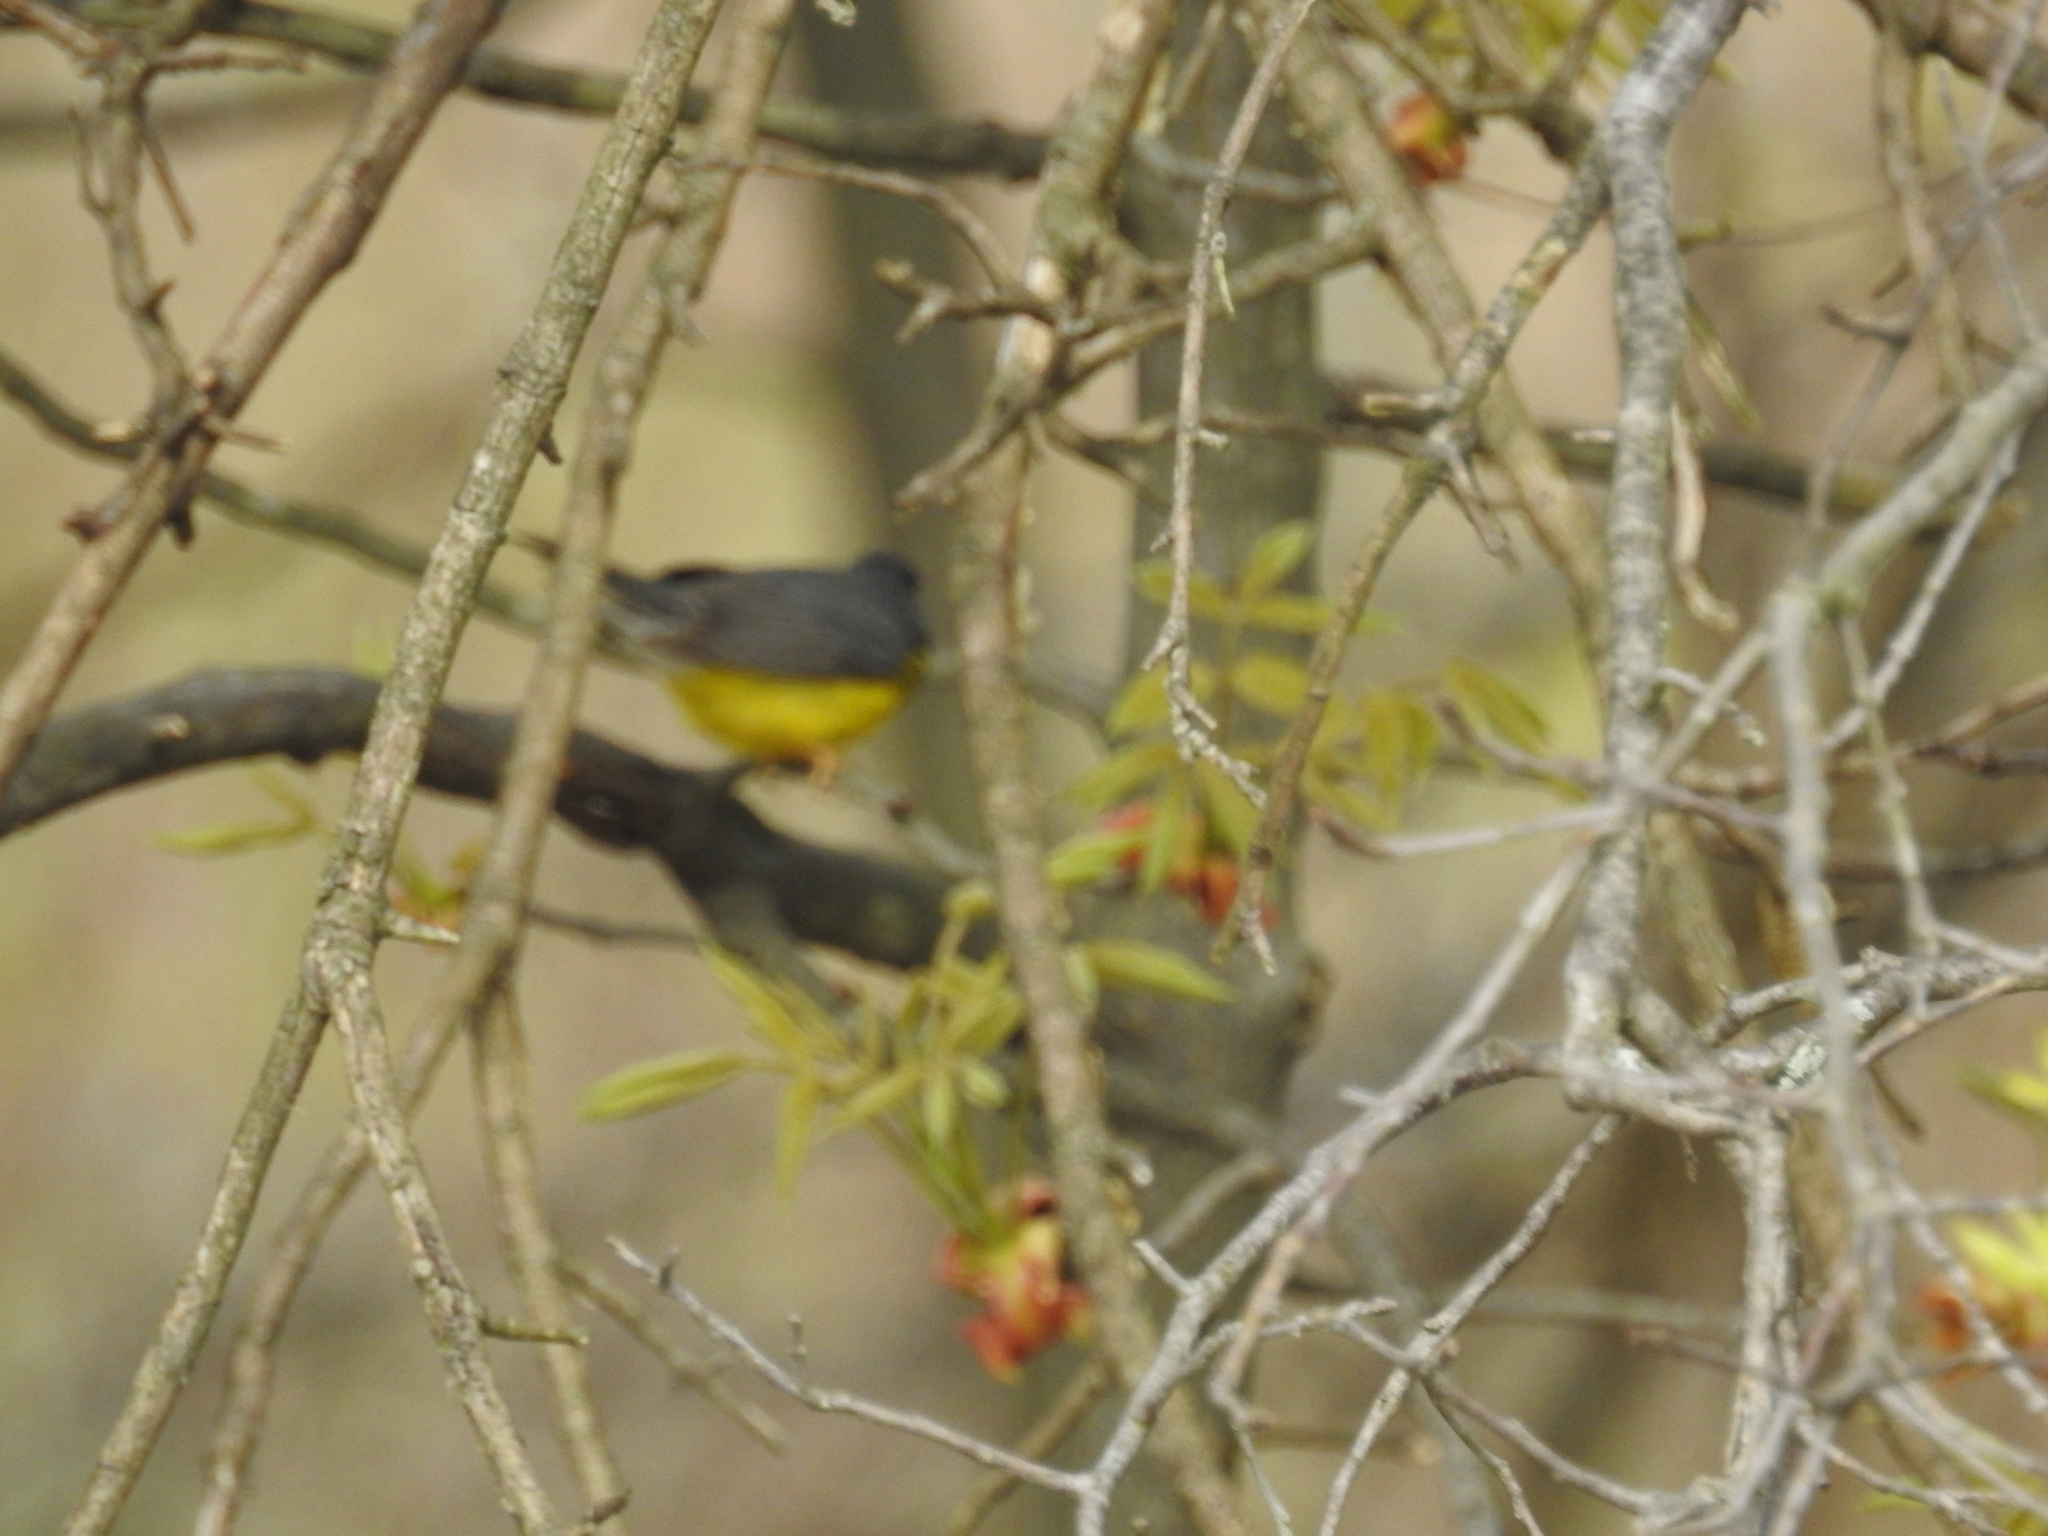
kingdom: Animalia
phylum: Chordata
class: Aves
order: Passeriformes
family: Parulidae
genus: Cardellina
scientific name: Cardellina canadensis
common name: Canada warbler
